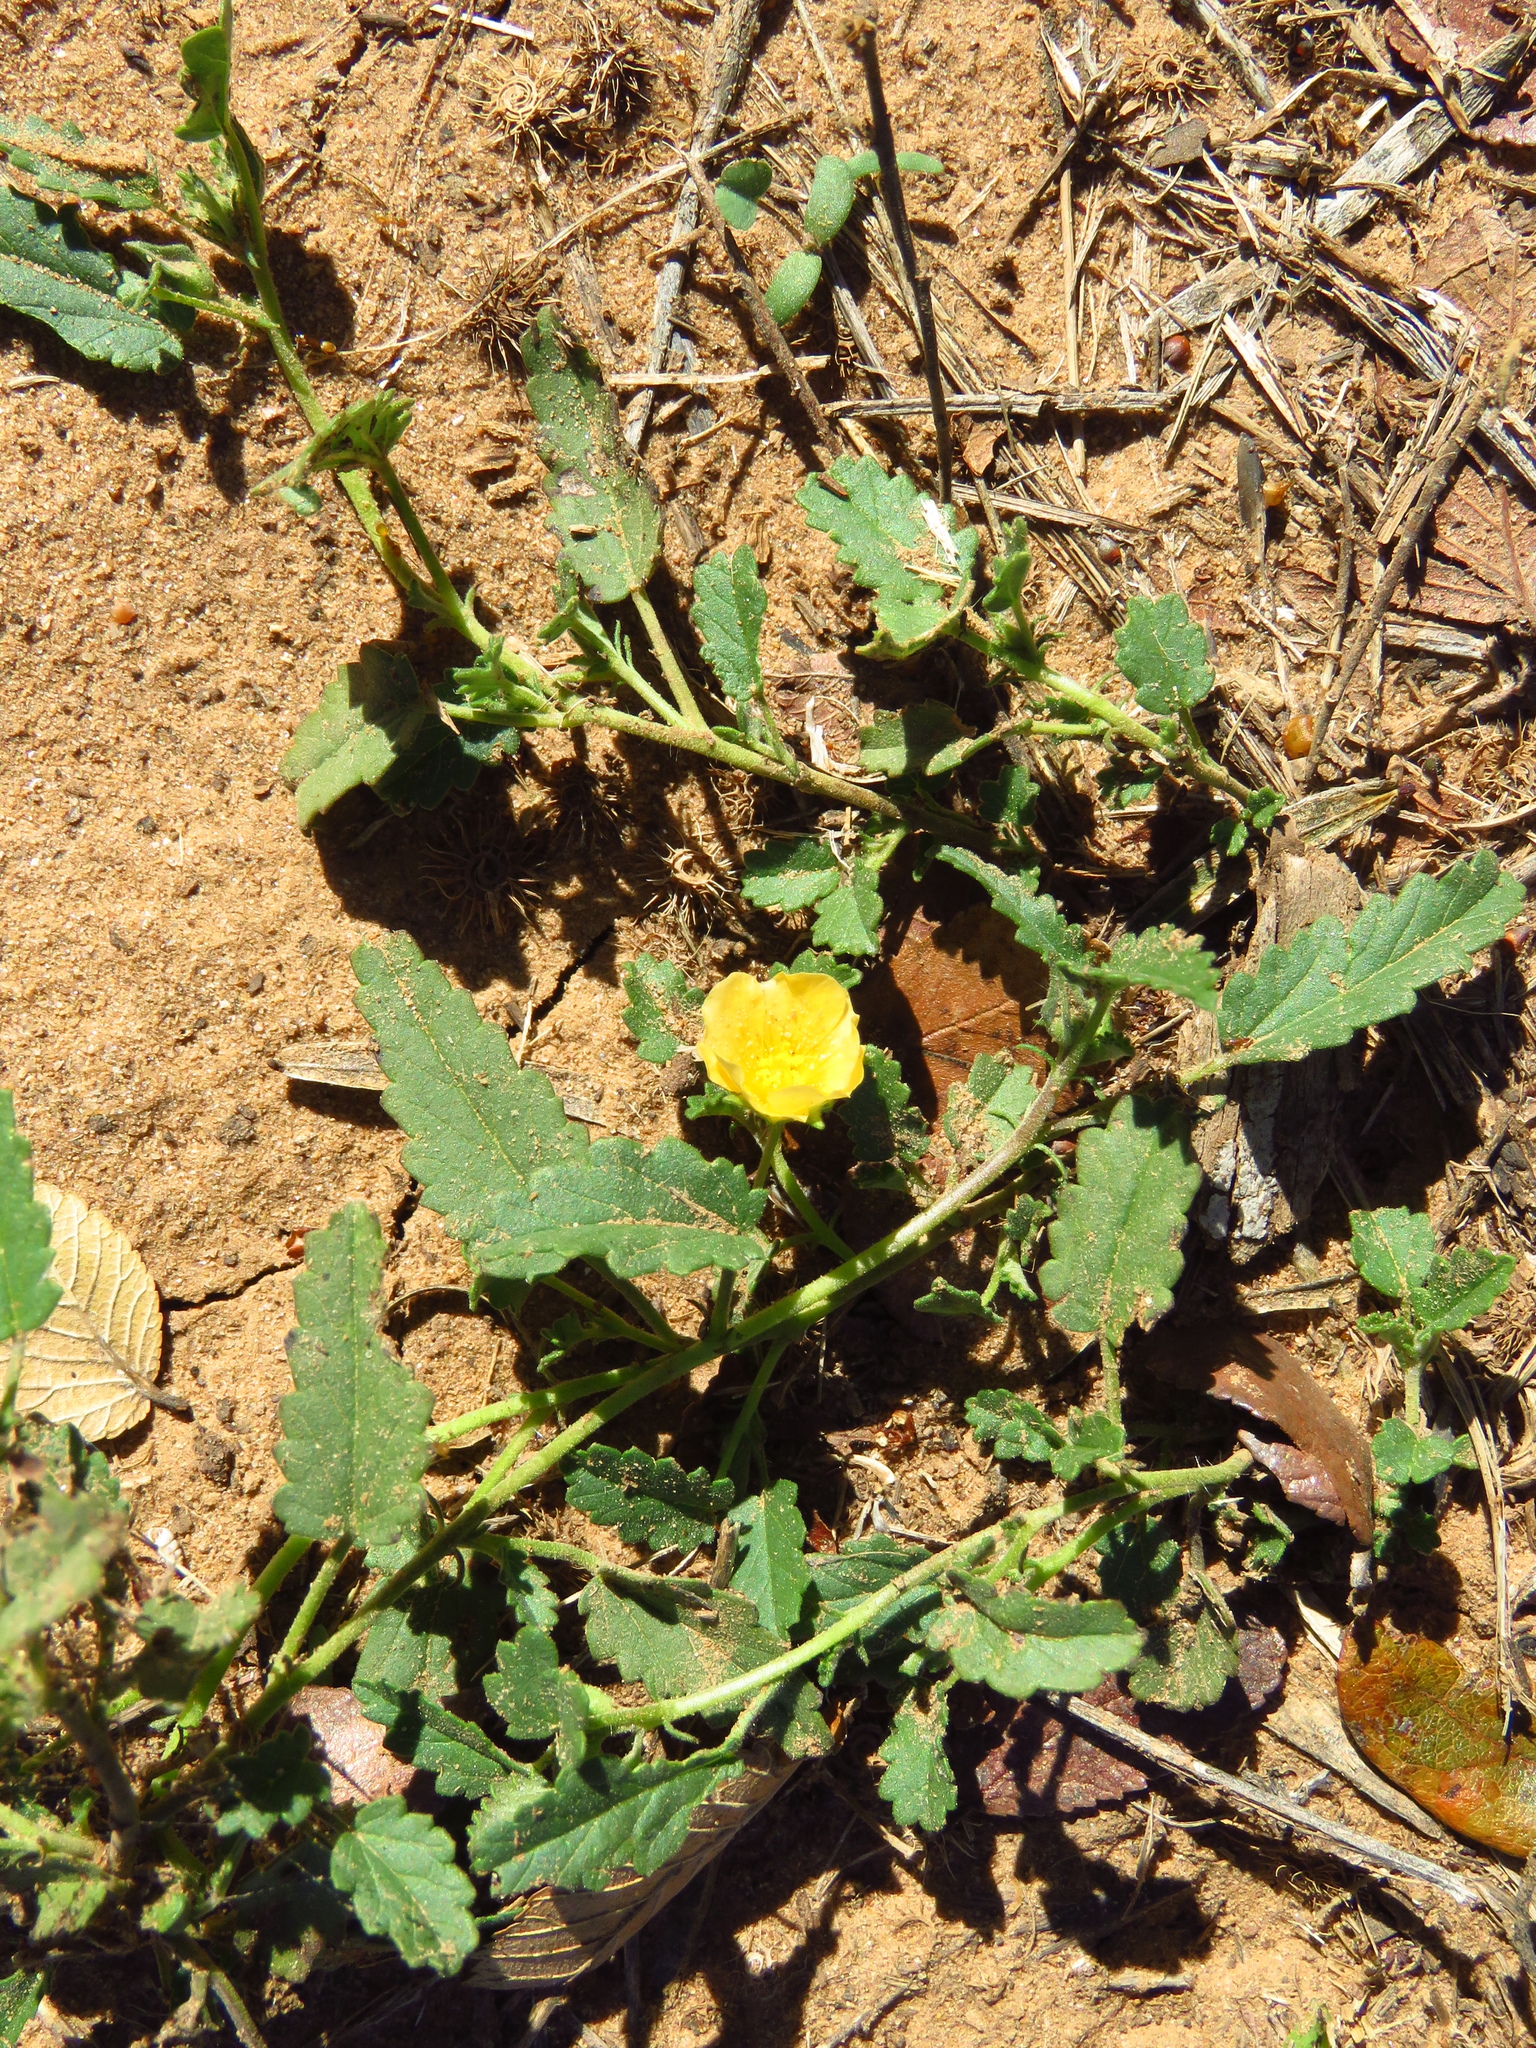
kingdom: Plantae
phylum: Tracheophyta
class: Magnoliopsida
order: Malvales
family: Malvaceae
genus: Sida
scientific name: Sida abutilifolia
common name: Spreading fanpetals
